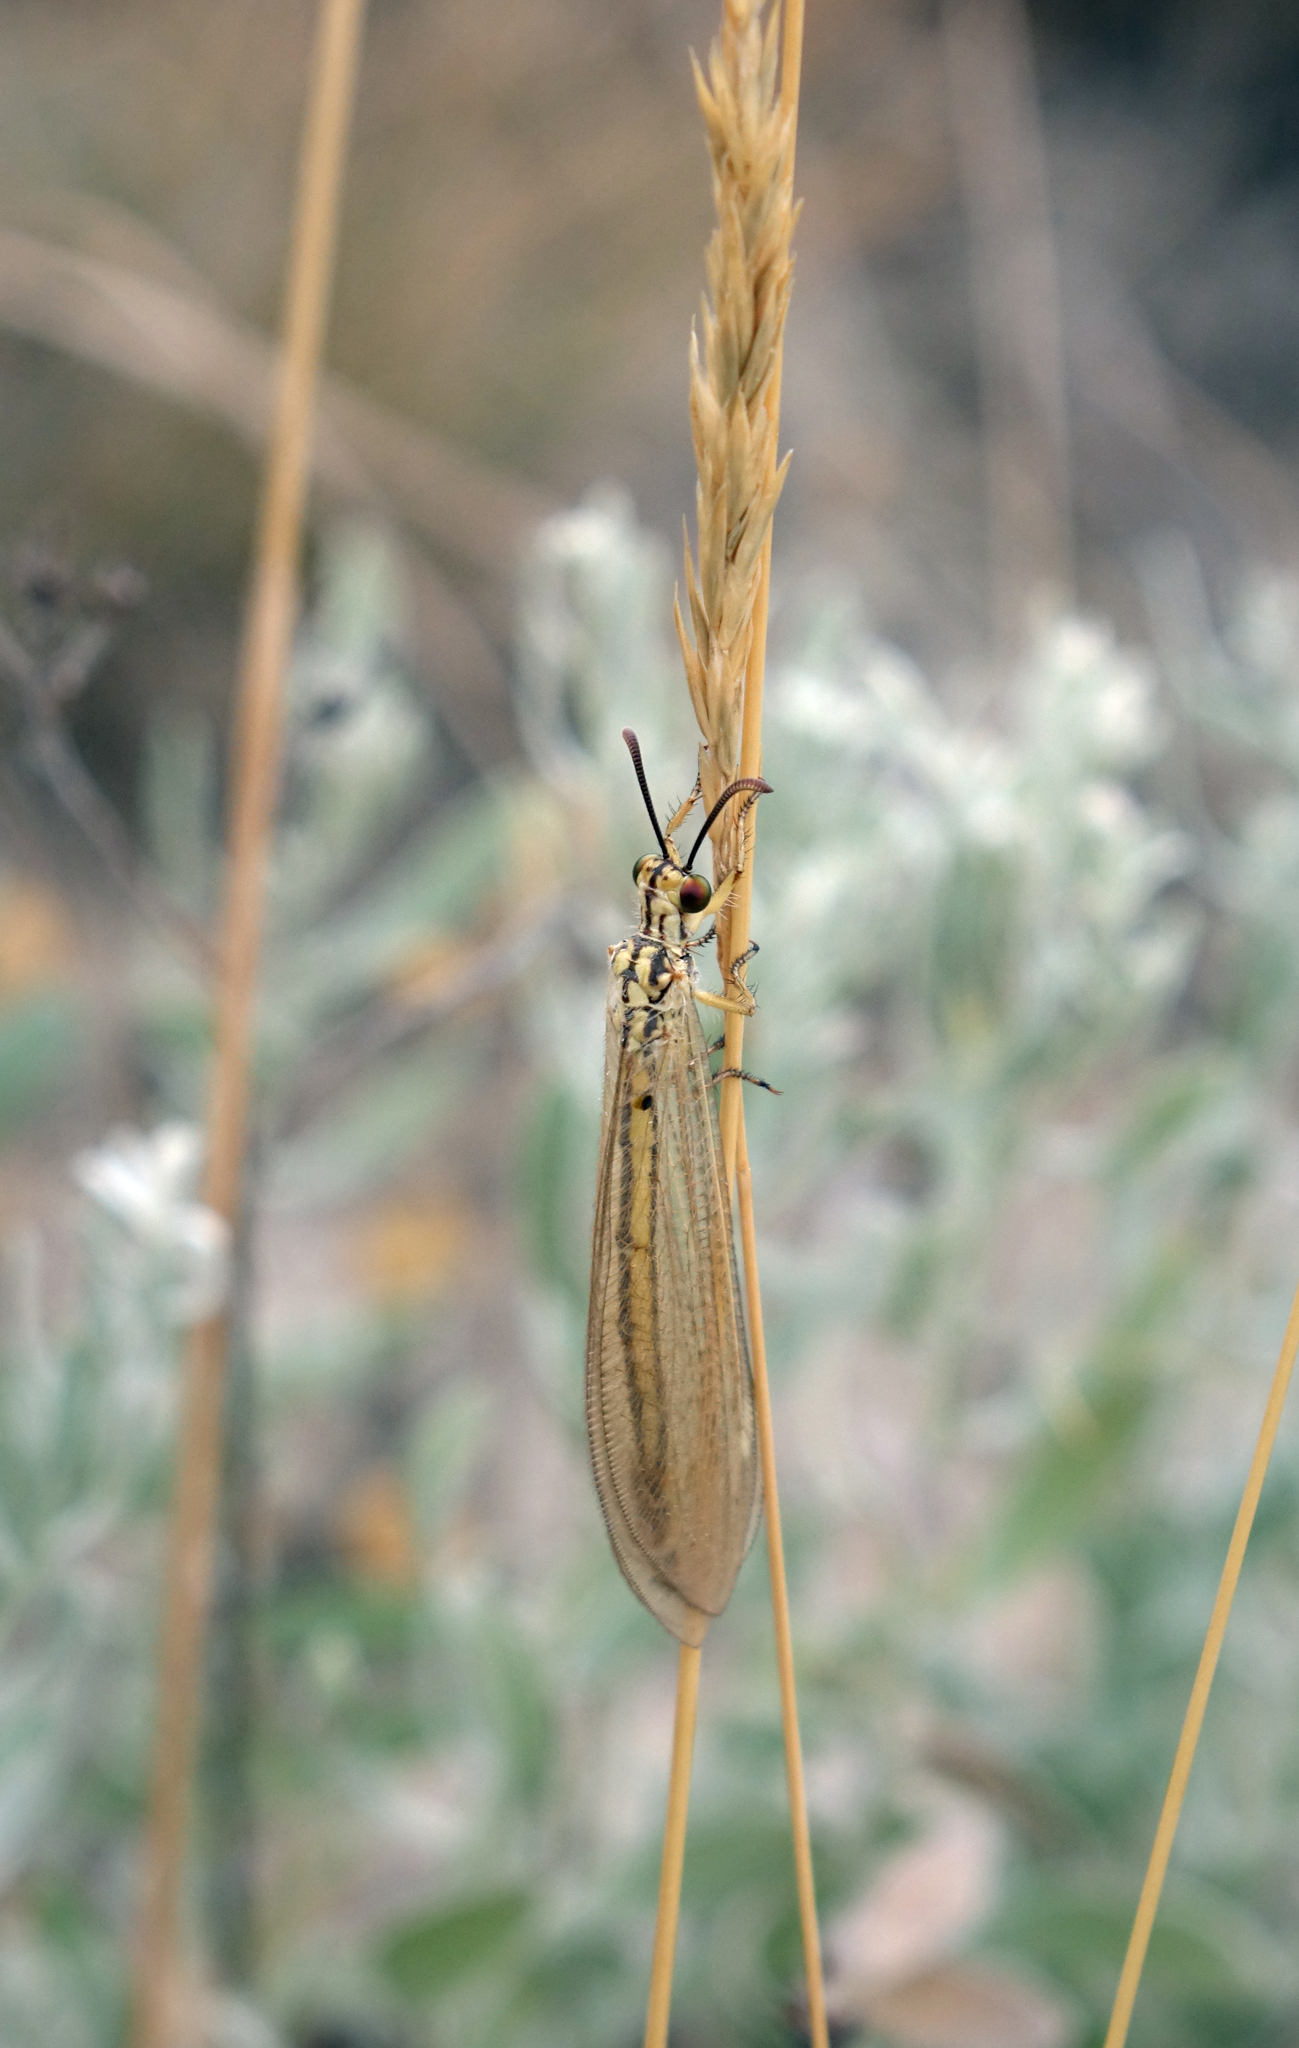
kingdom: Animalia
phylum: Arthropoda
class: Insecta
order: Neuroptera
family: Myrmeleontidae
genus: Myrmecaelurus
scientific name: Myrmecaelurus trigrammus
